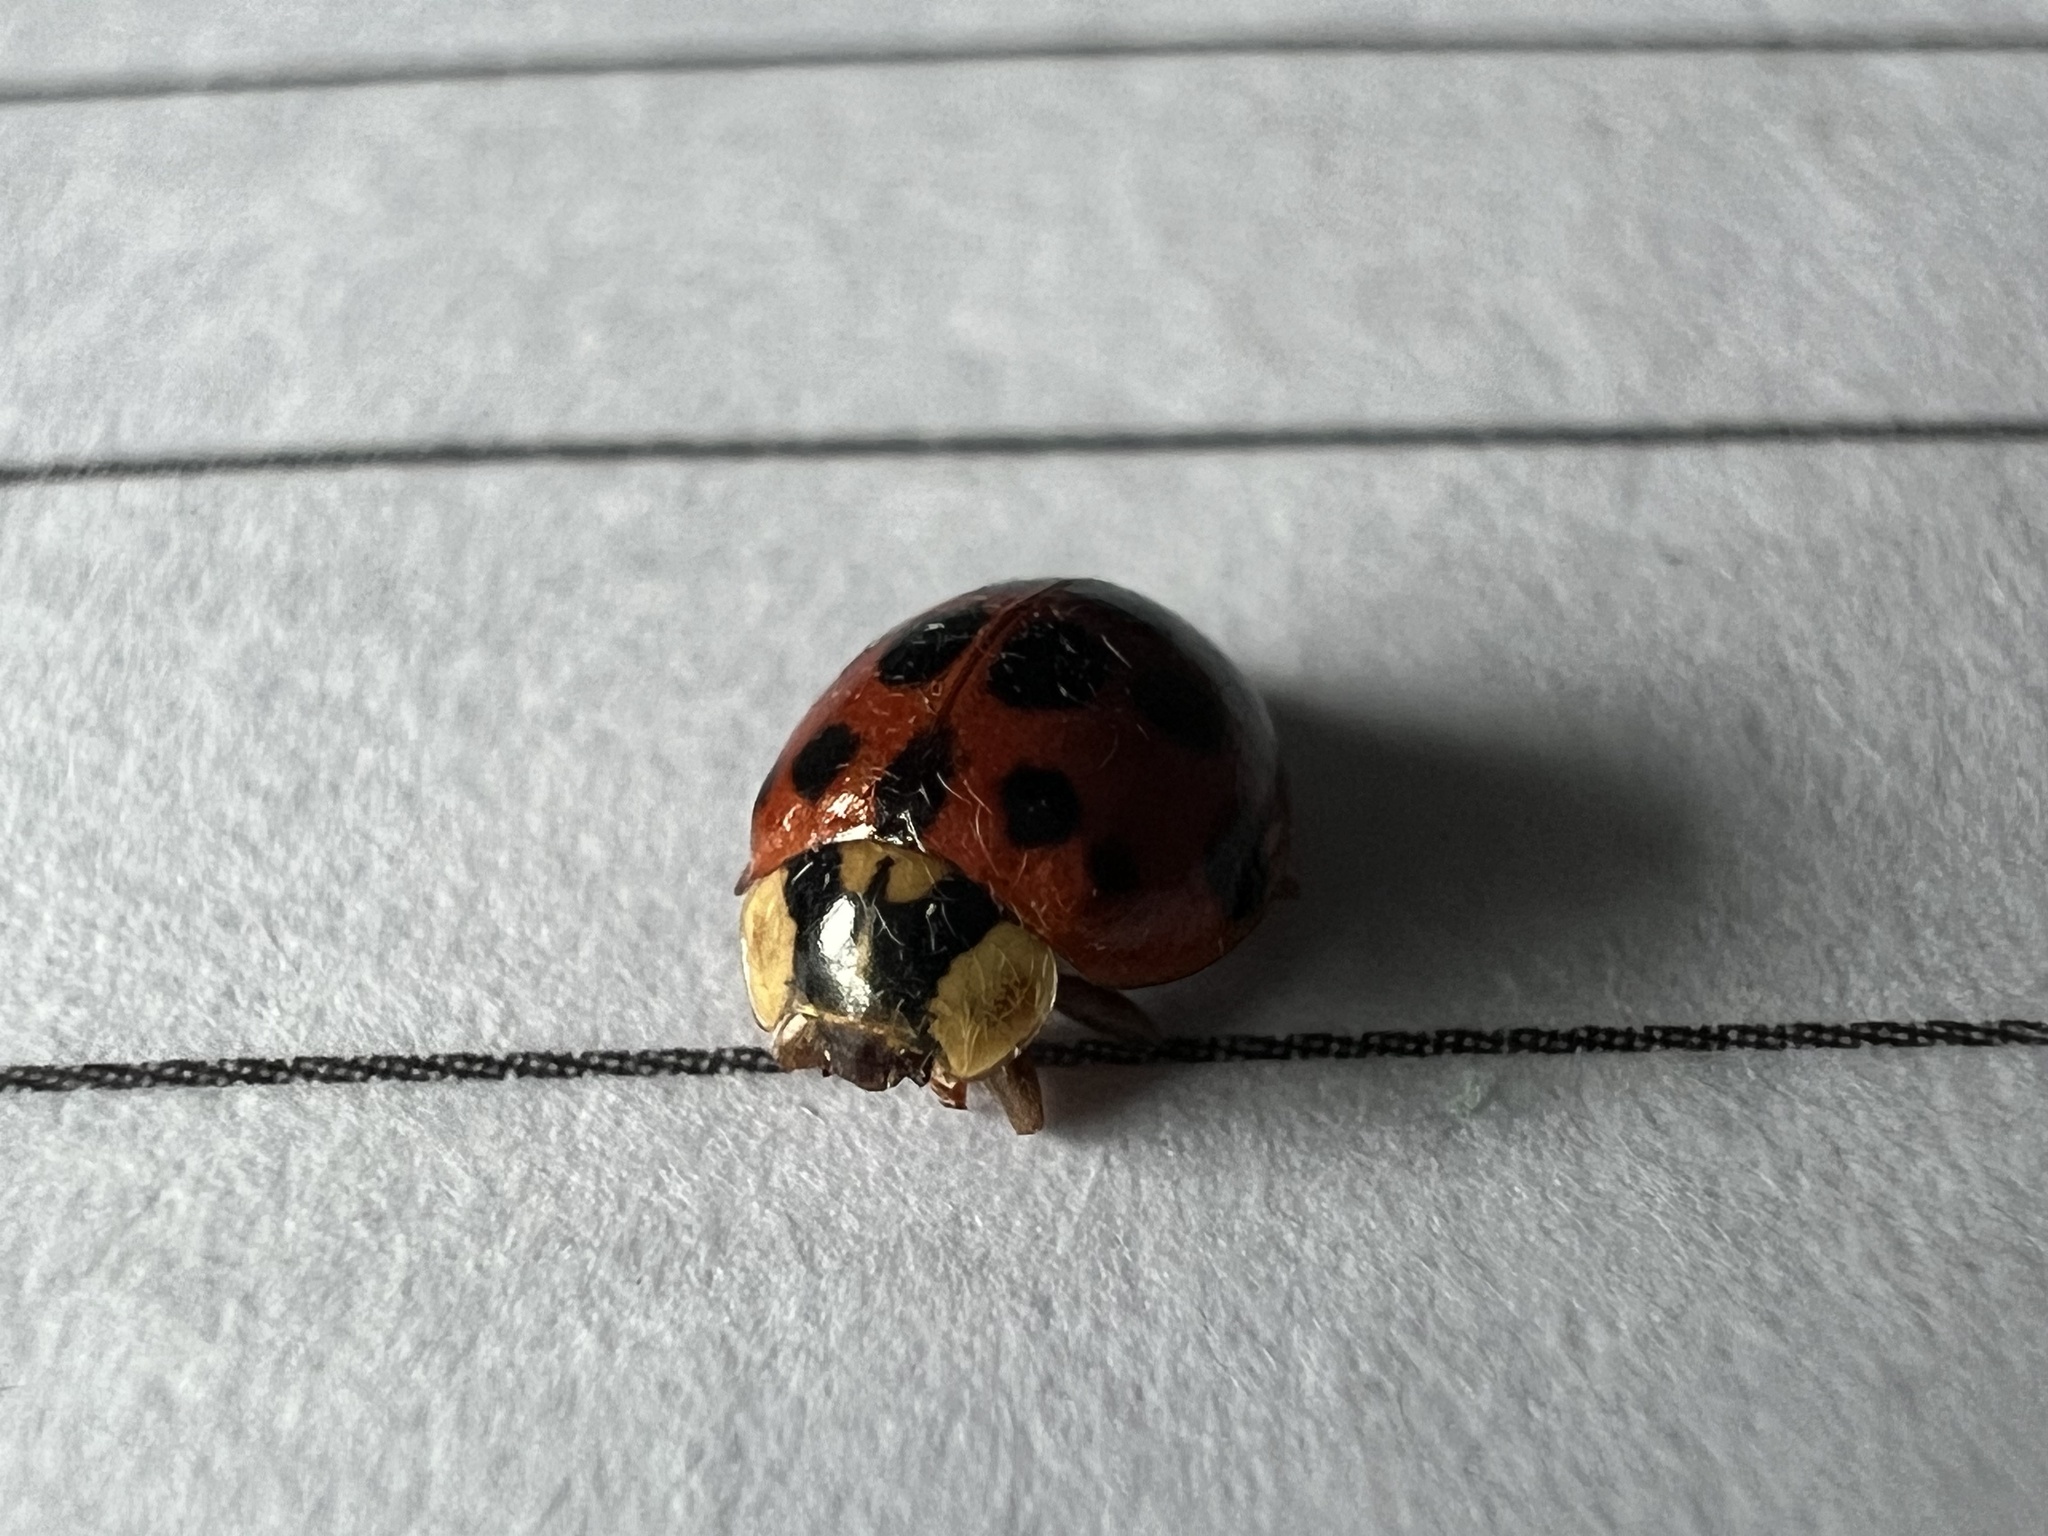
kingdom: Animalia
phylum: Arthropoda
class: Insecta
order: Coleoptera
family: Coccinellidae
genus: Harmonia
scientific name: Harmonia axyridis
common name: Harlequin ladybird
